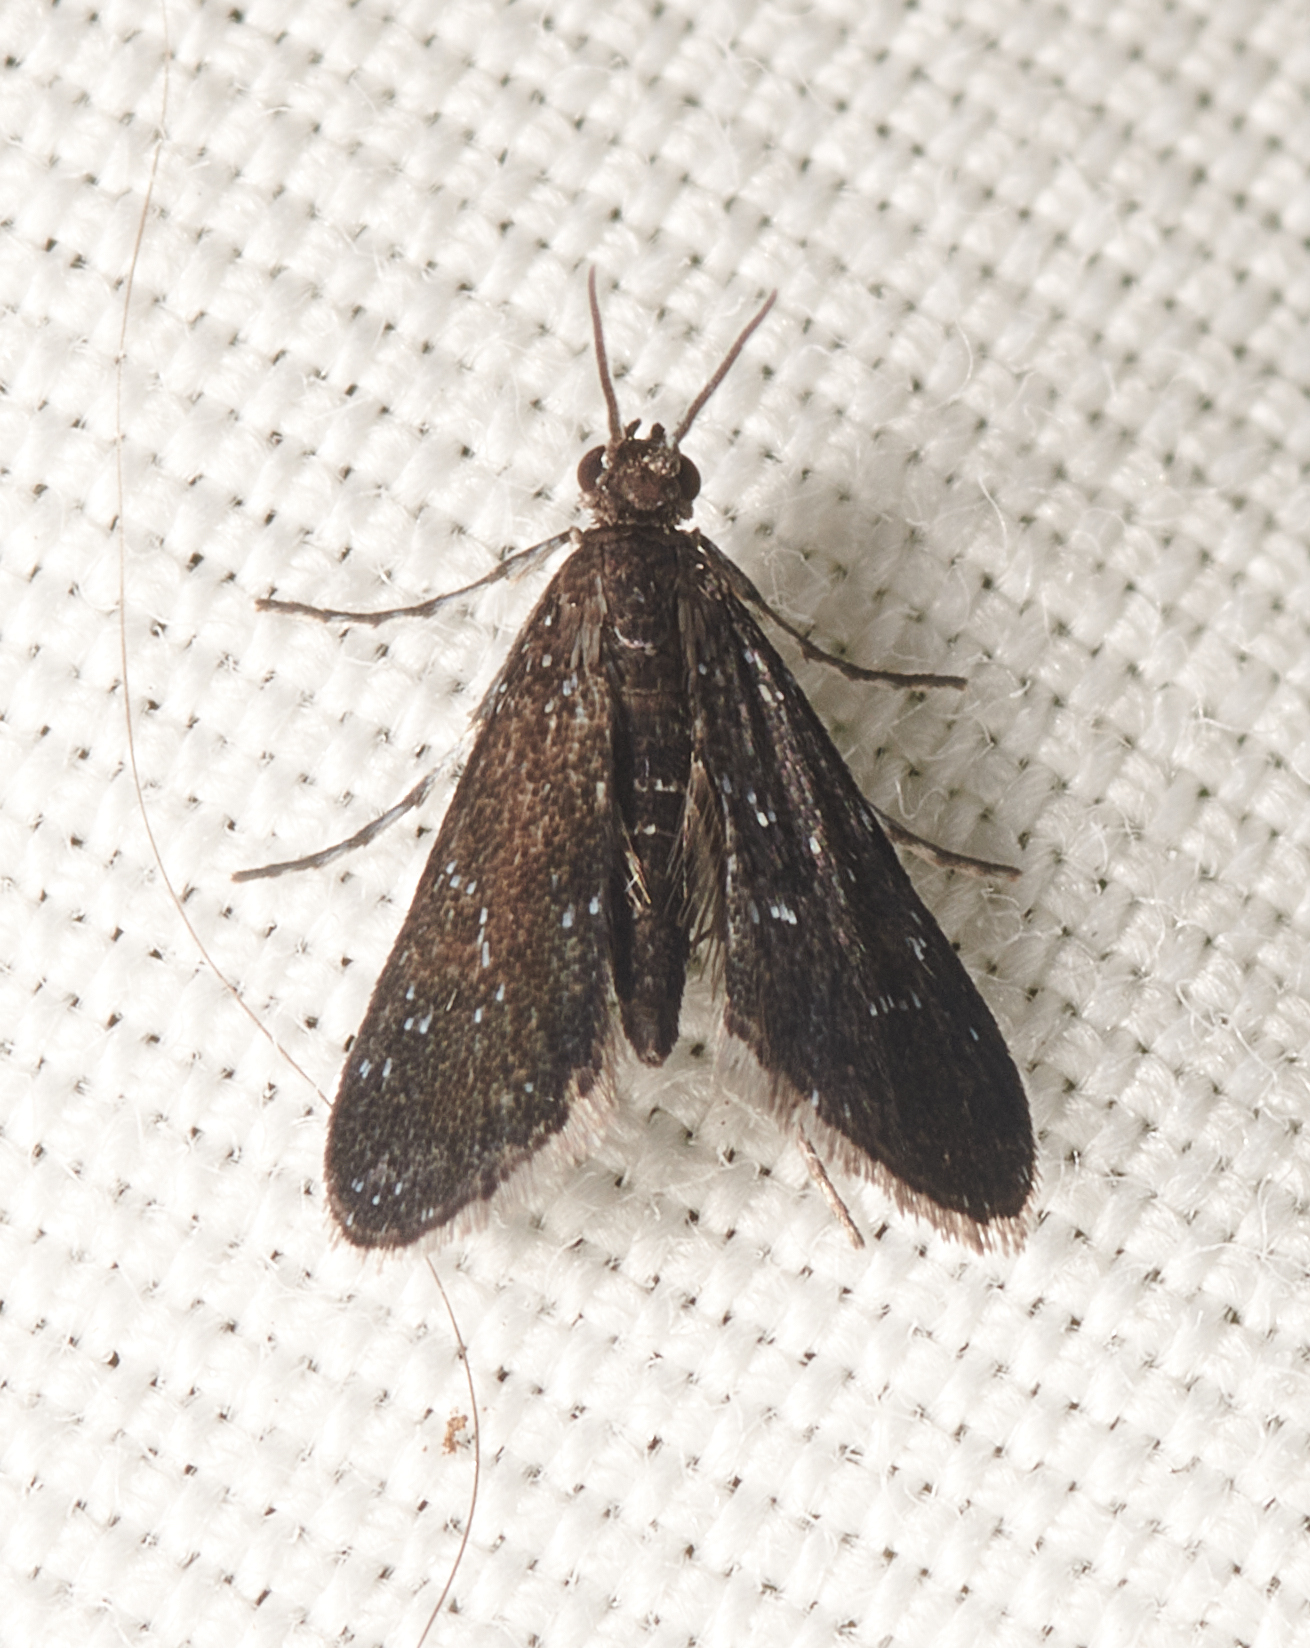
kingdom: Animalia
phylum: Arthropoda
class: Insecta
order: Lepidoptera
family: Crambidae
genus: Elophila
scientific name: Elophila tinealis
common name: Black duckweed moth
